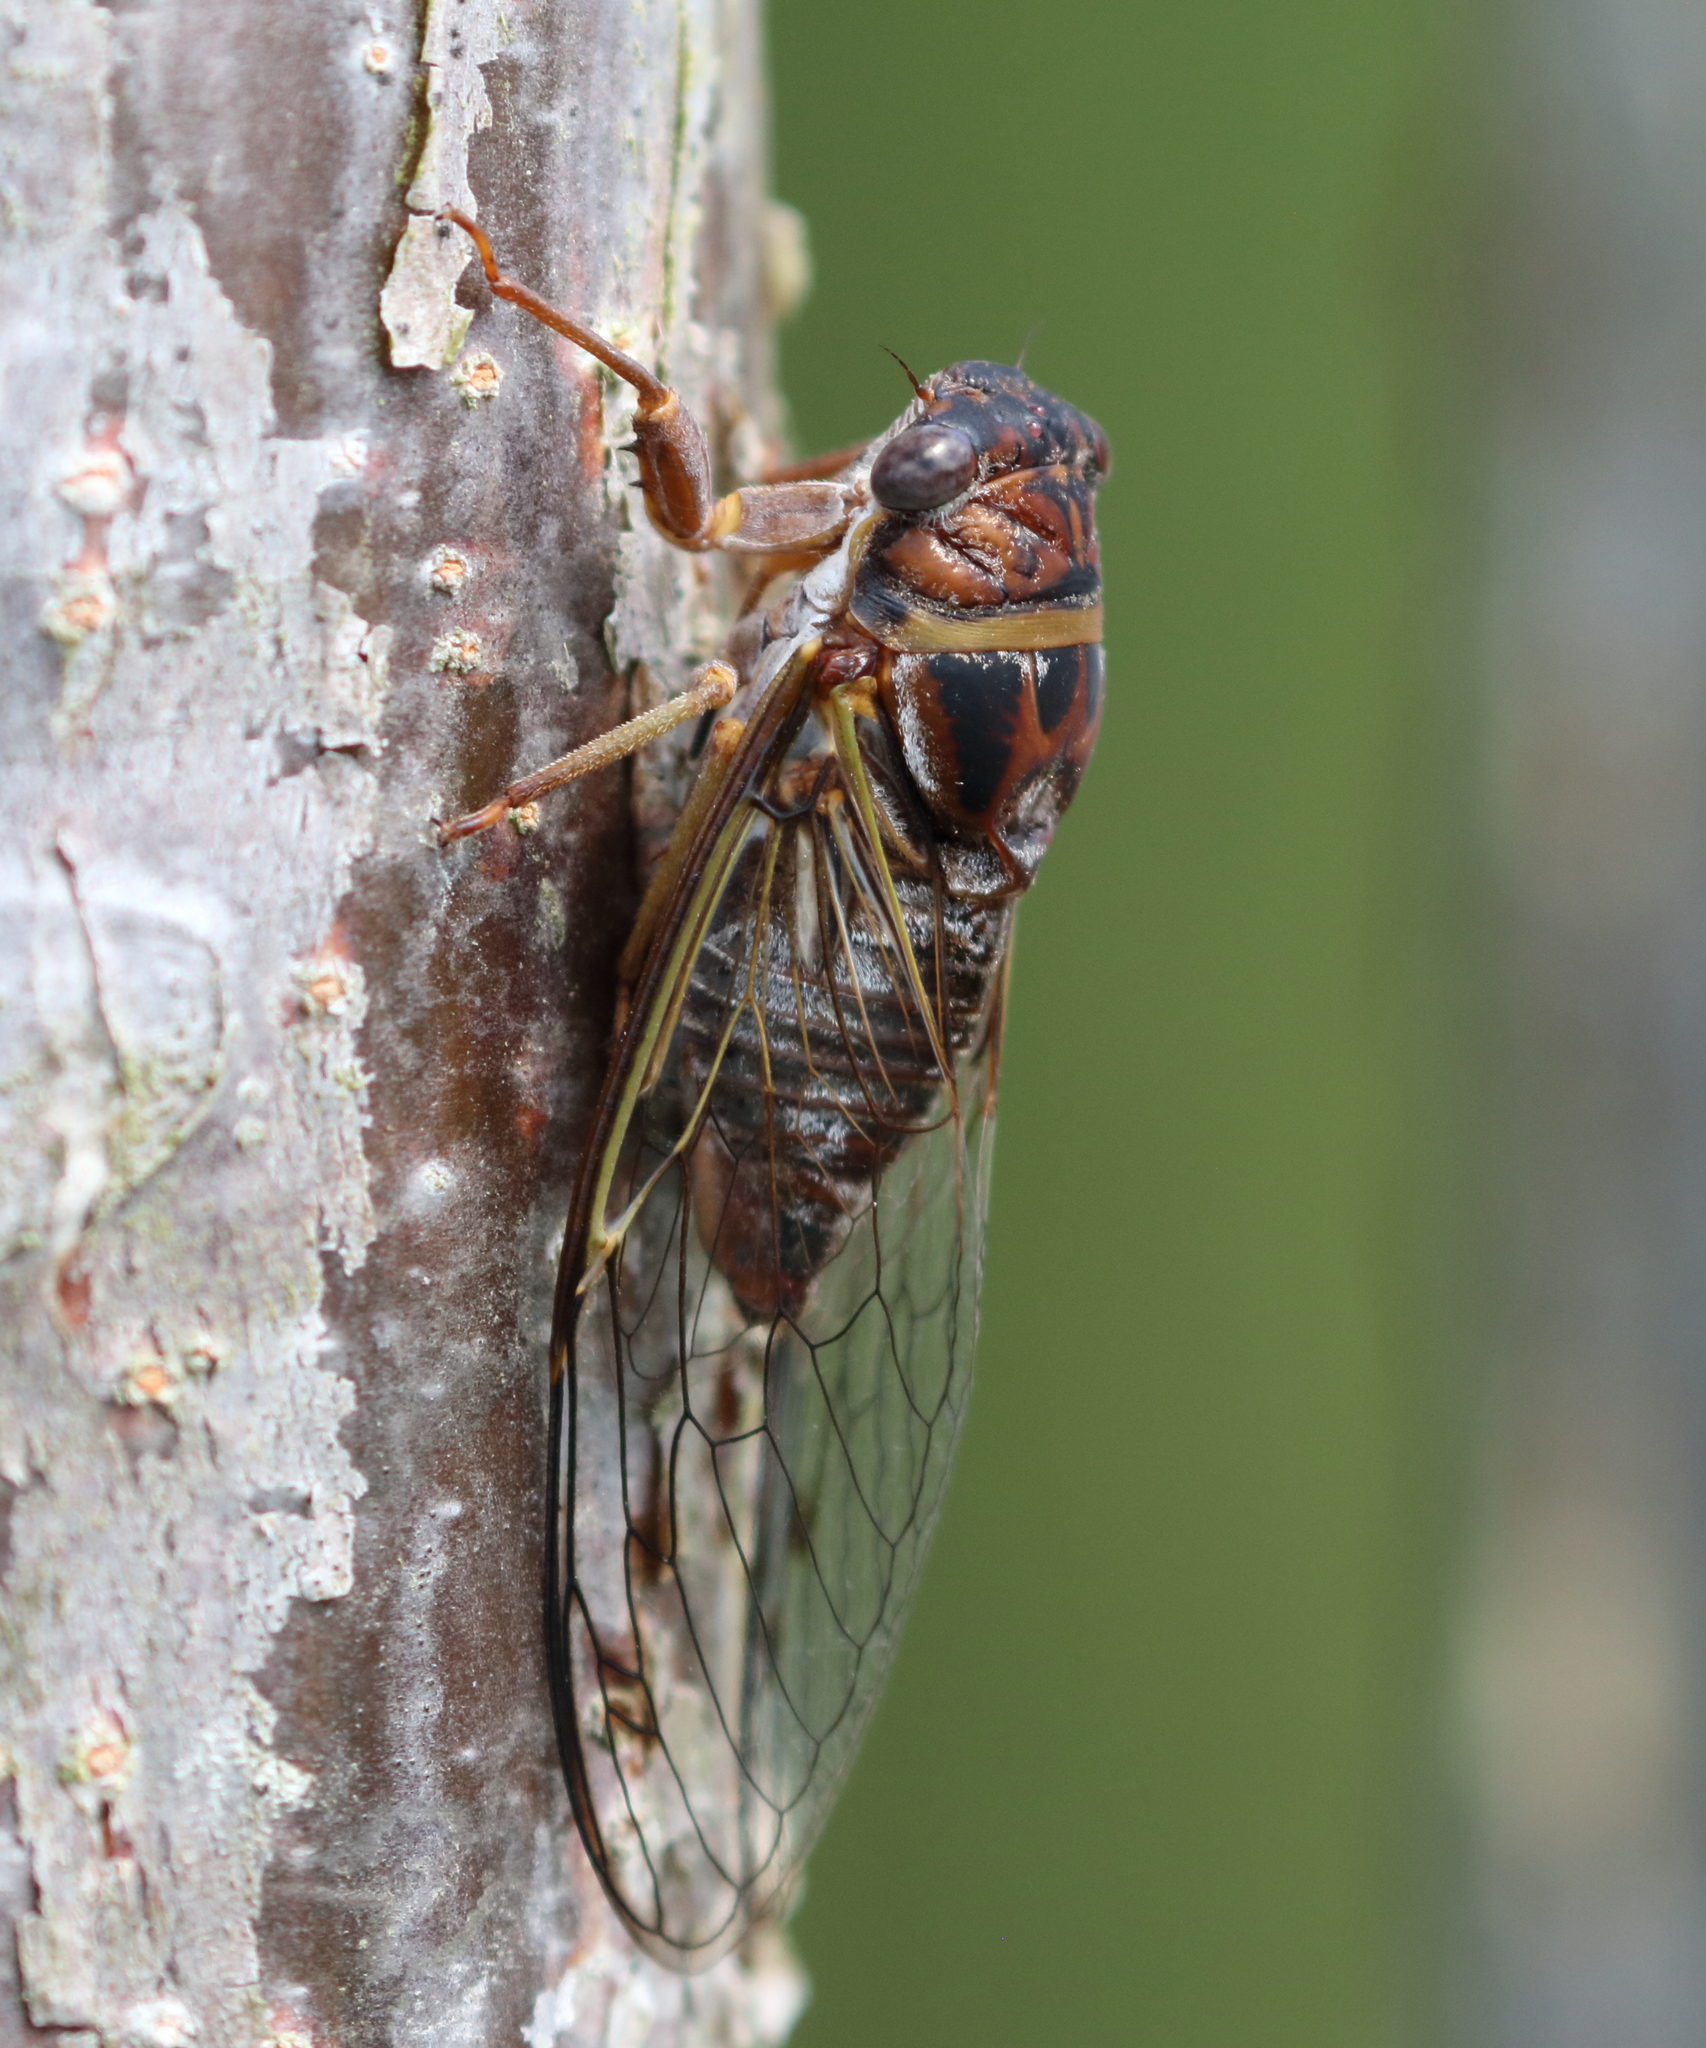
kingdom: Animalia
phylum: Arthropoda
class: Insecta
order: Hemiptera
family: Cicadidae
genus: Diceroprocta
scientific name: Diceroprocta olympusa
